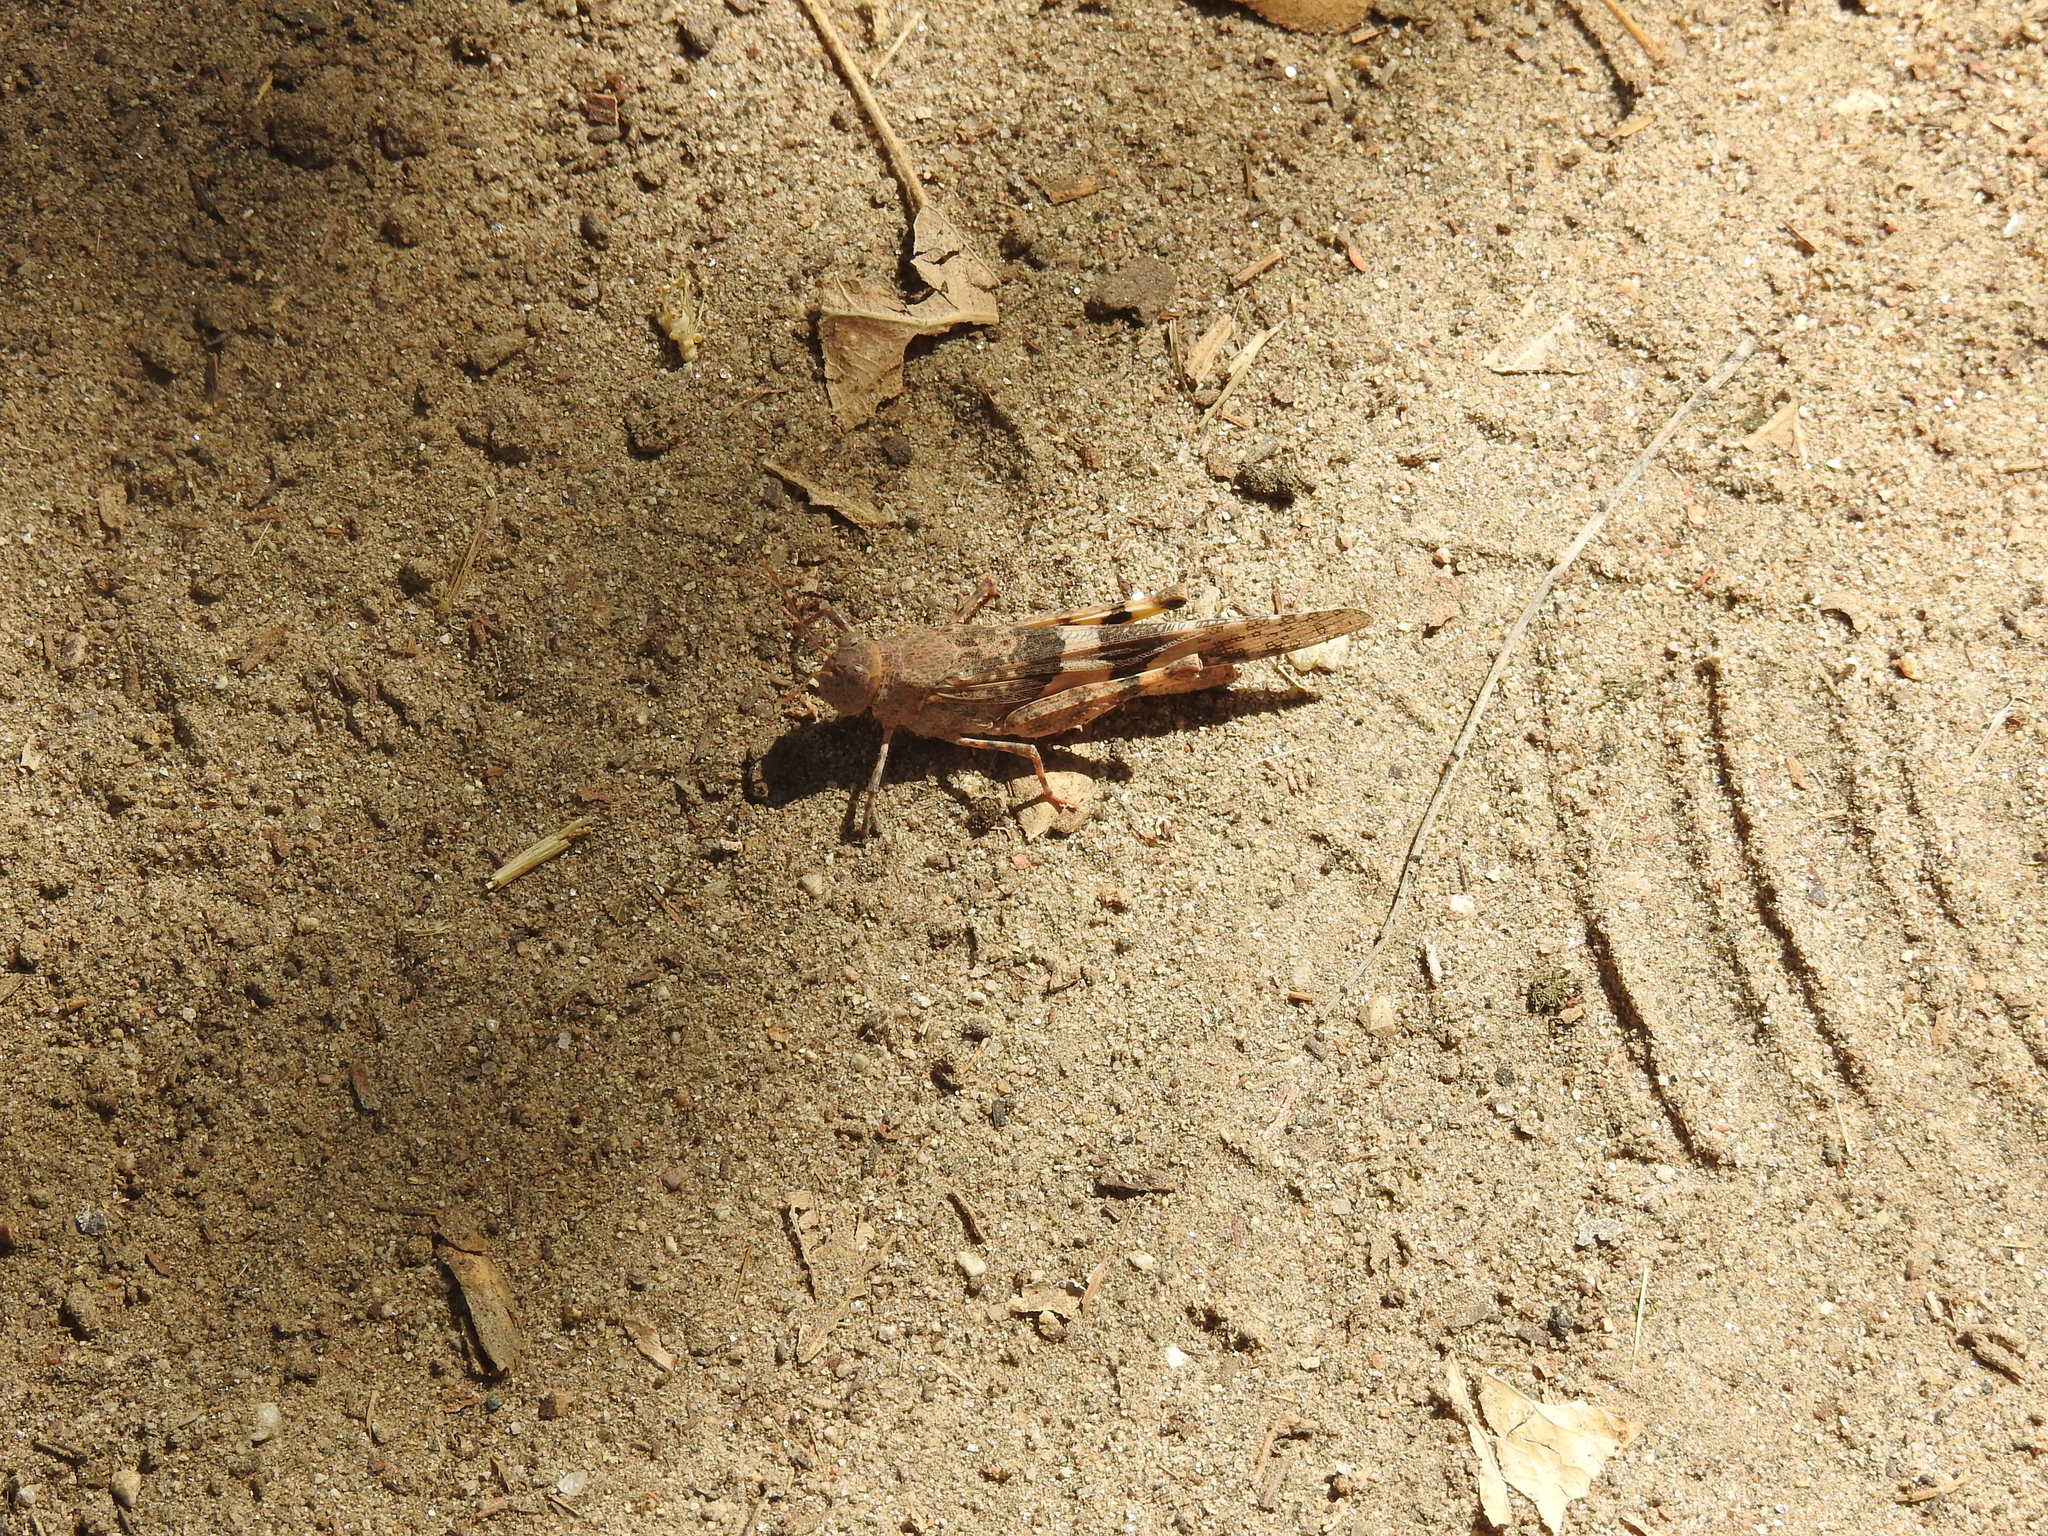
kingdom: Animalia
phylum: Arthropoda
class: Insecta
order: Orthoptera
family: Acrididae
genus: Trimerotropis
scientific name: Trimerotropis pallidipennis
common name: Pallid-winged grasshopper
